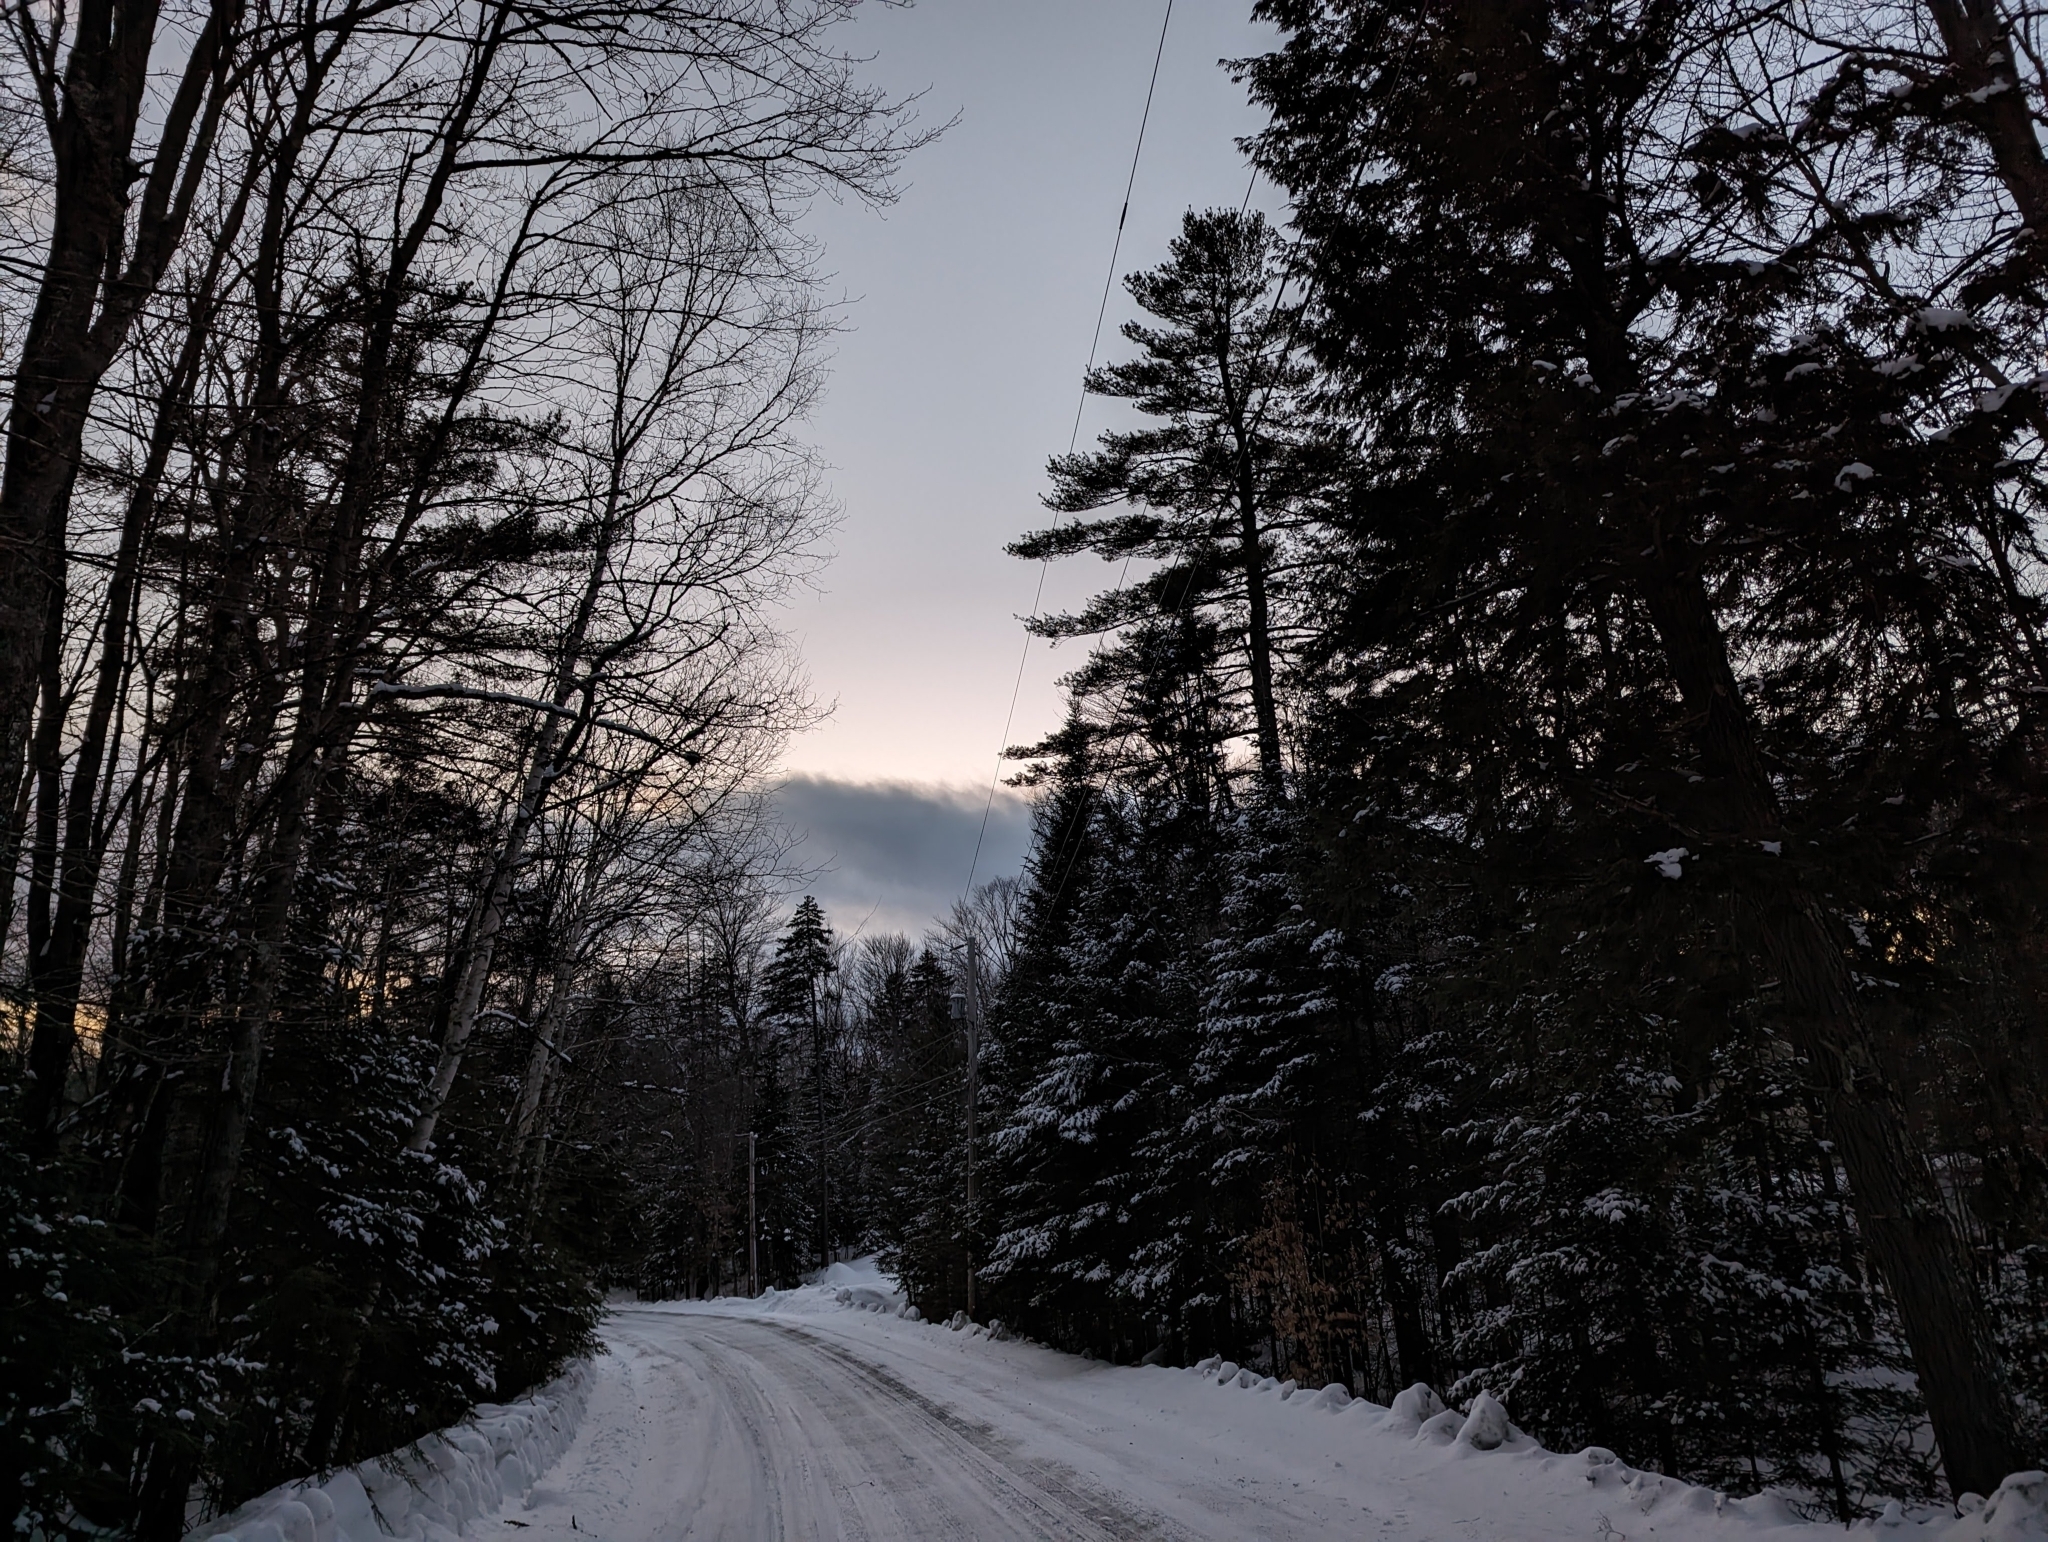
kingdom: Plantae
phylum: Tracheophyta
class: Pinopsida
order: Pinales
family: Pinaceae
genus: Pinus
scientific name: Pinus strobus
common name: Weymouth pine
